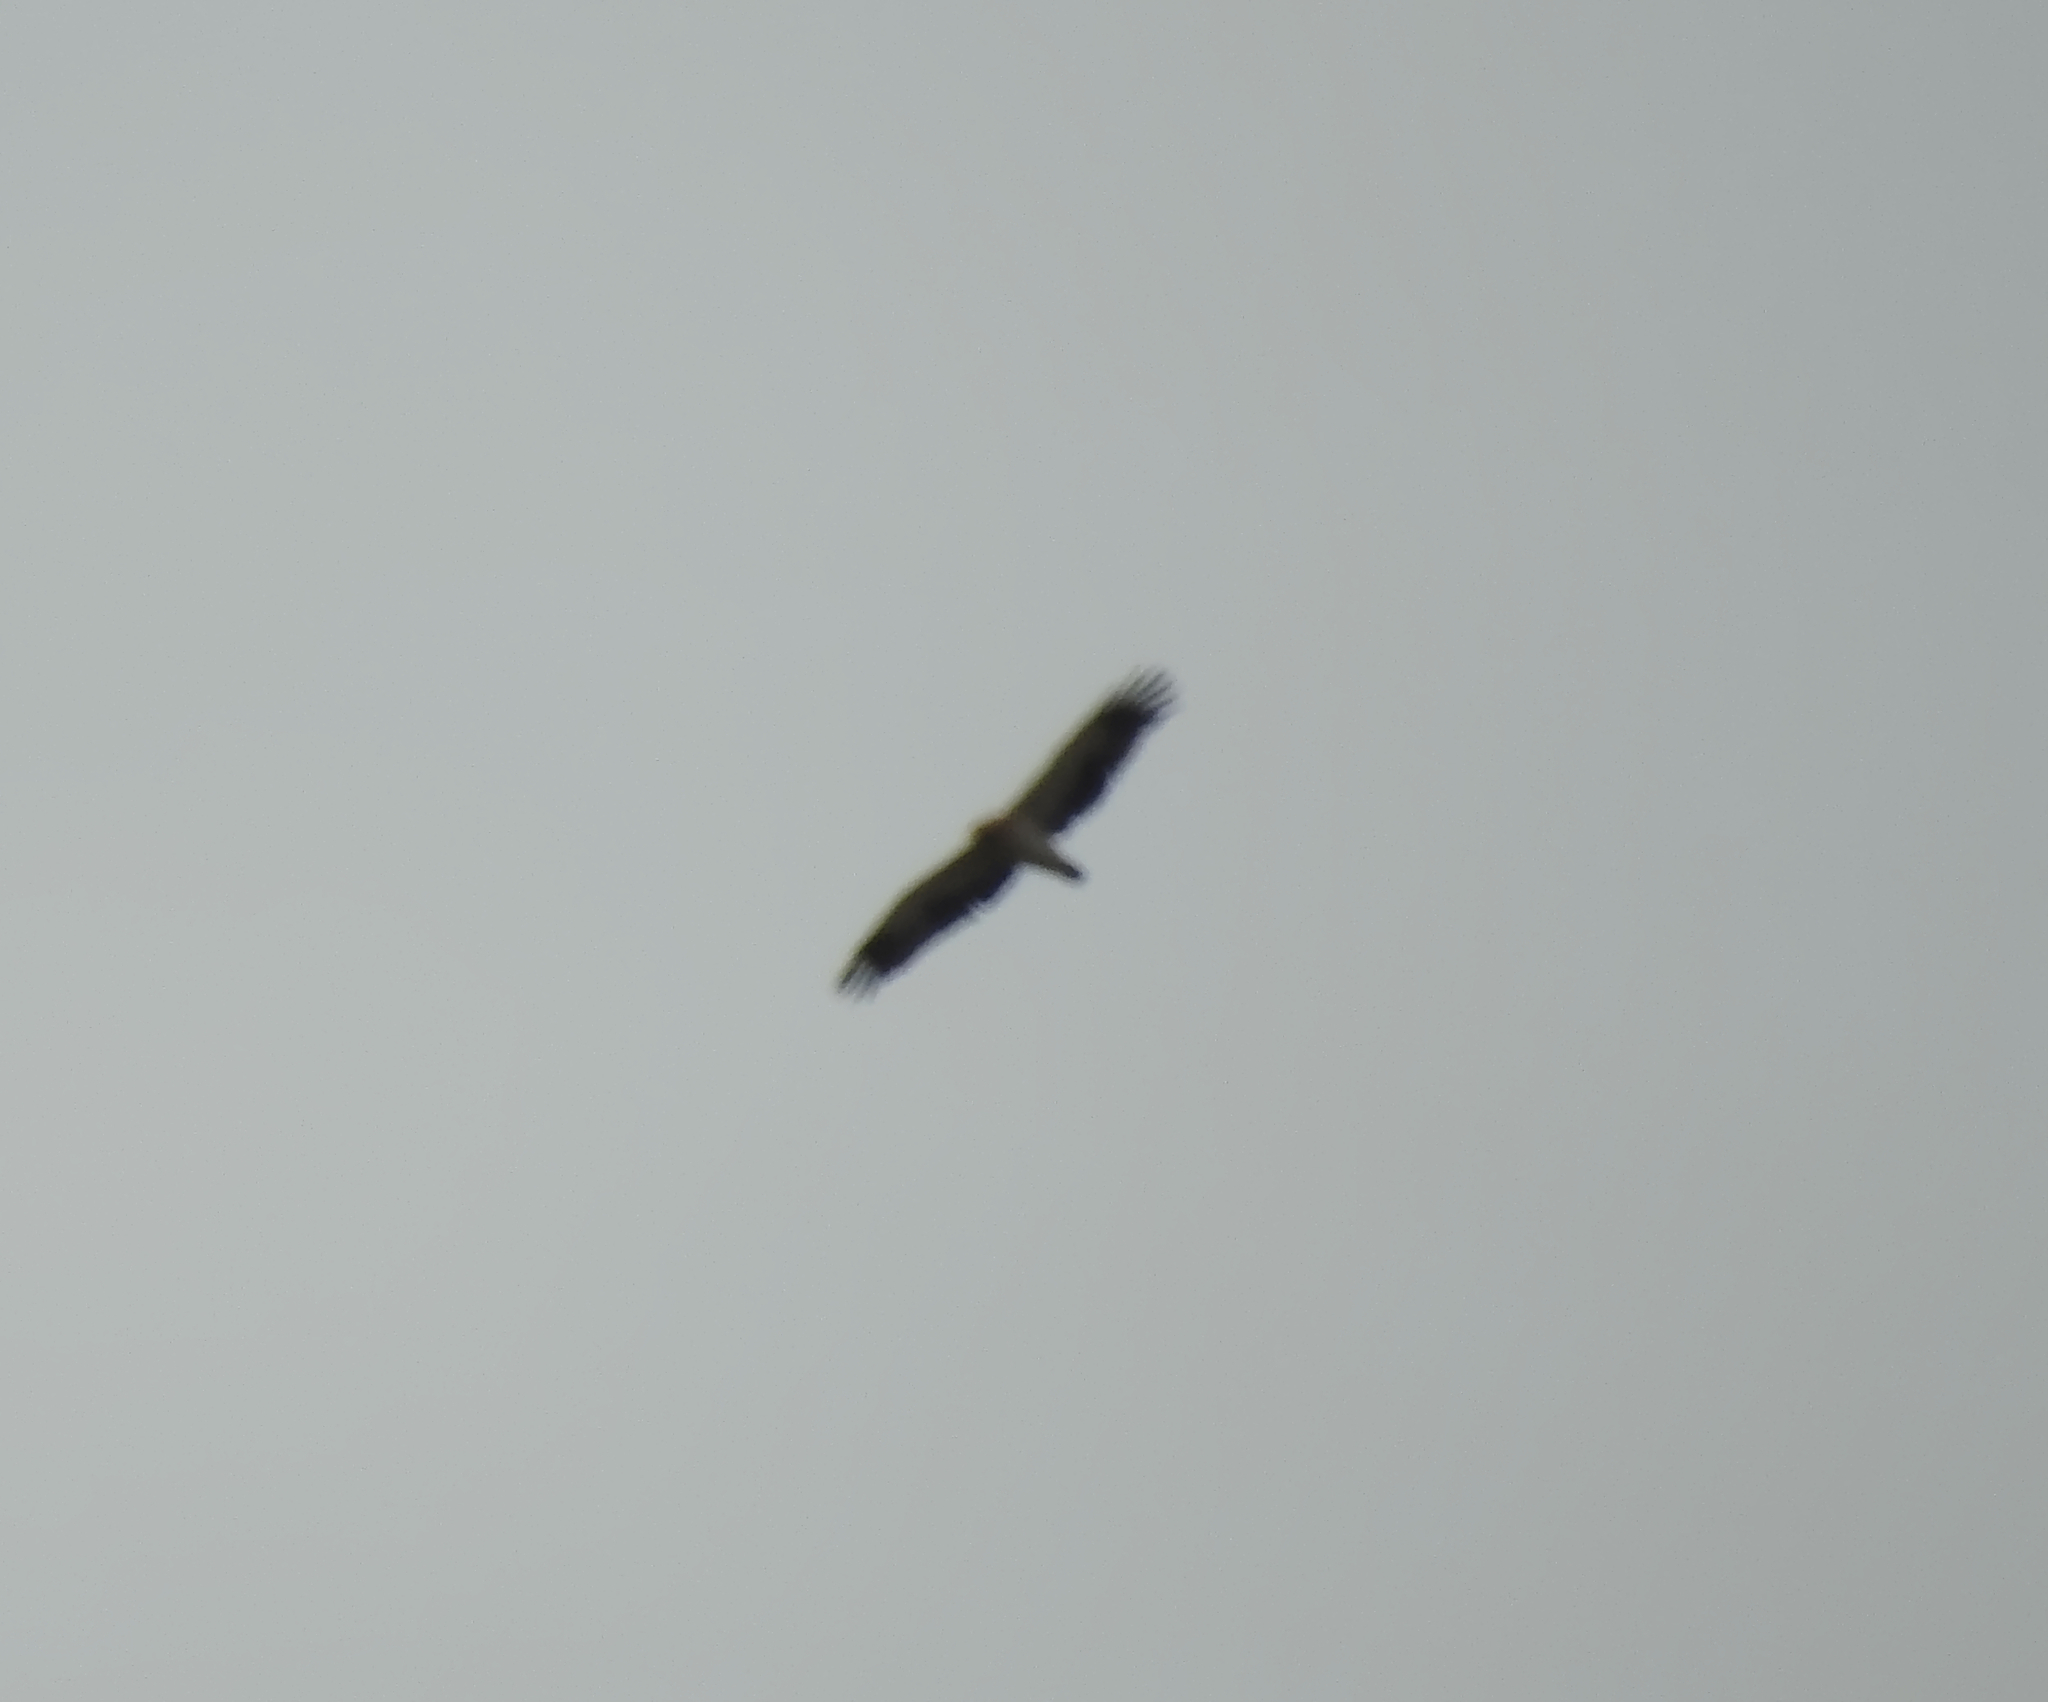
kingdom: Animalia
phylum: Chordata
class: Aves
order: Accipitriformes
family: Accipitridae
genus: Hieraaetus
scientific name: Hieraaetus pennatus
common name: Booted eagle
